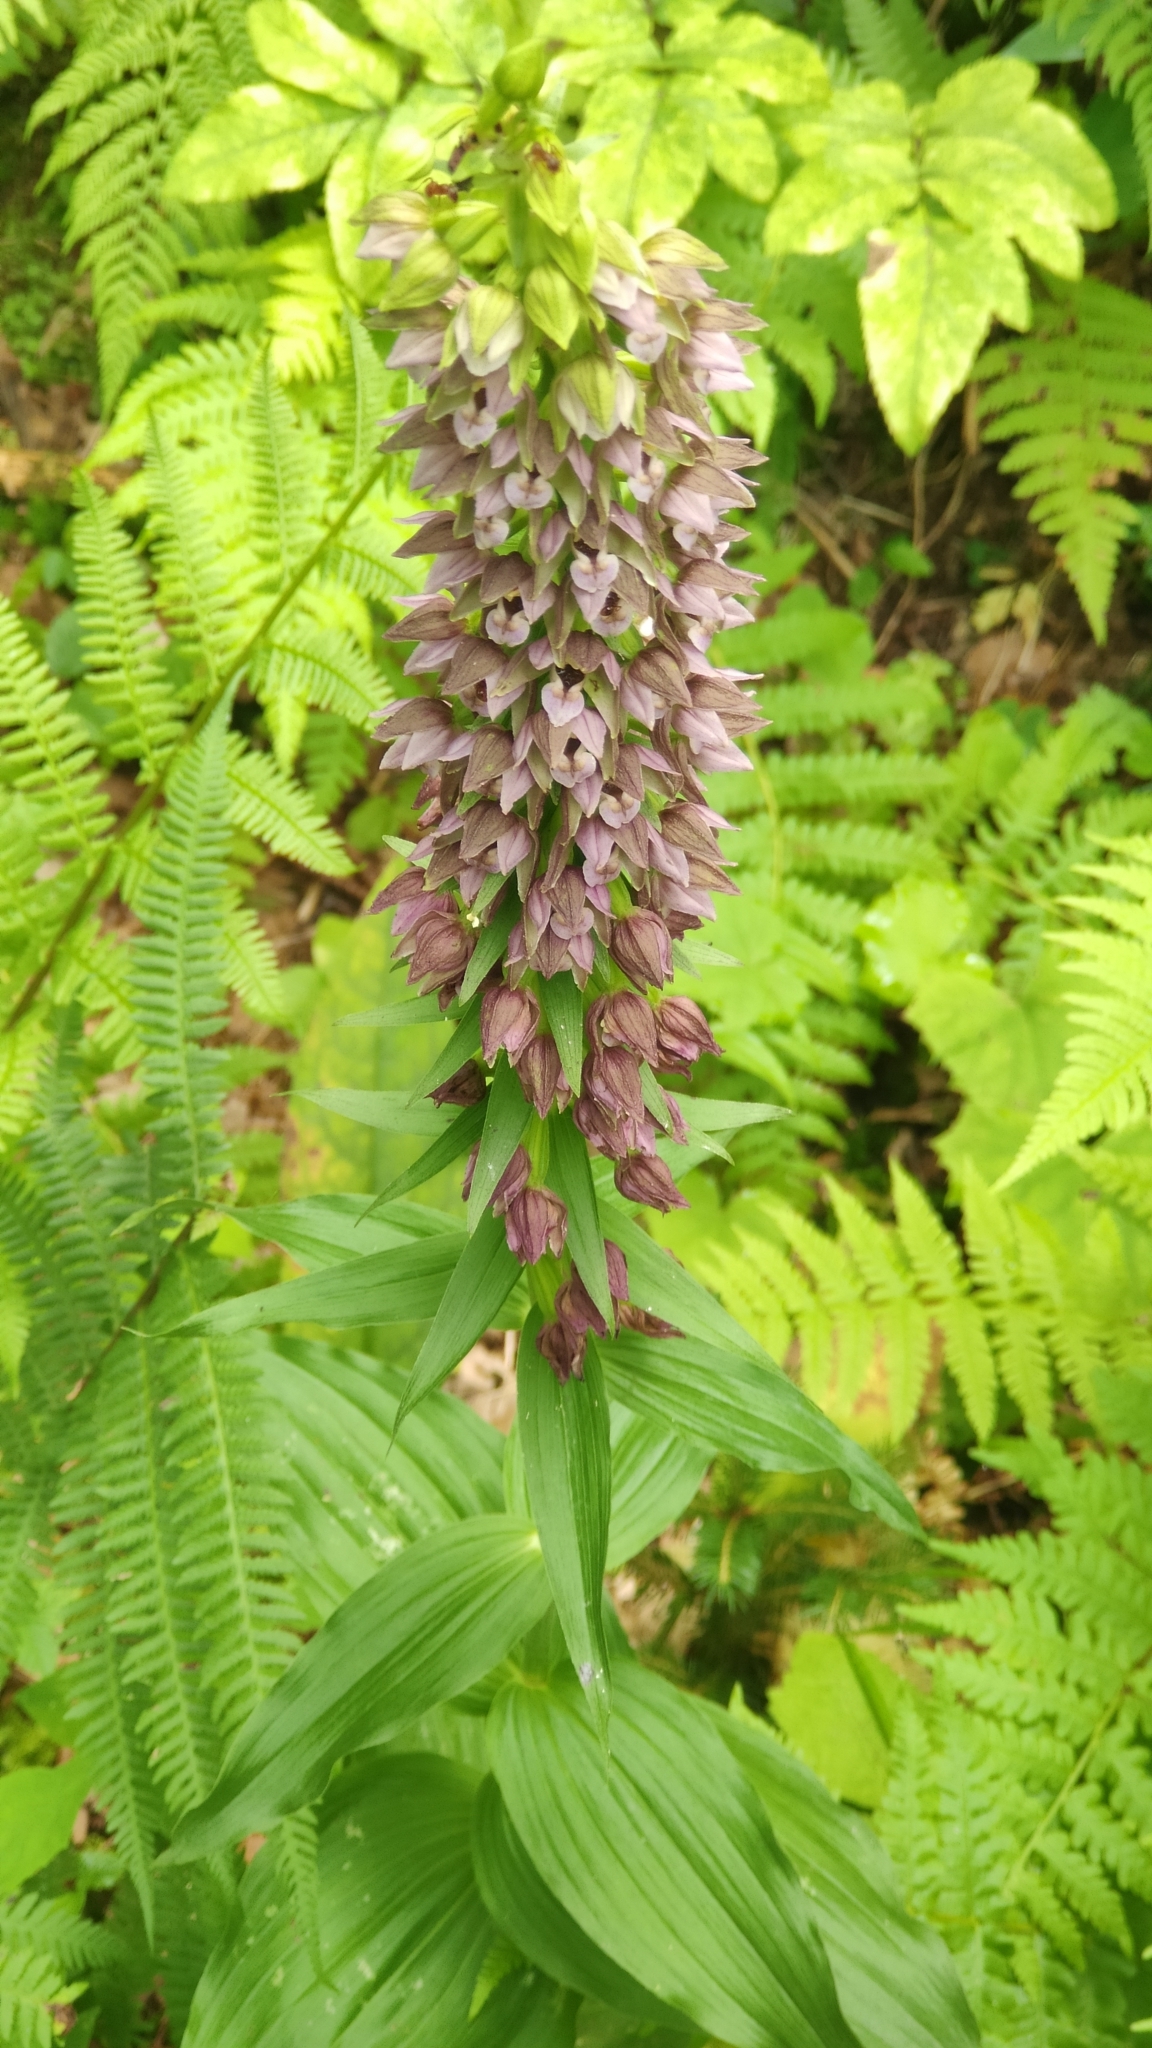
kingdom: Plantae
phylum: Tracheophyta
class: Liliopsida
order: Asparagales
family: Orchidaceae
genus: Epipactis
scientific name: Epipactis helleborine
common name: Broad-leaved helleborine
